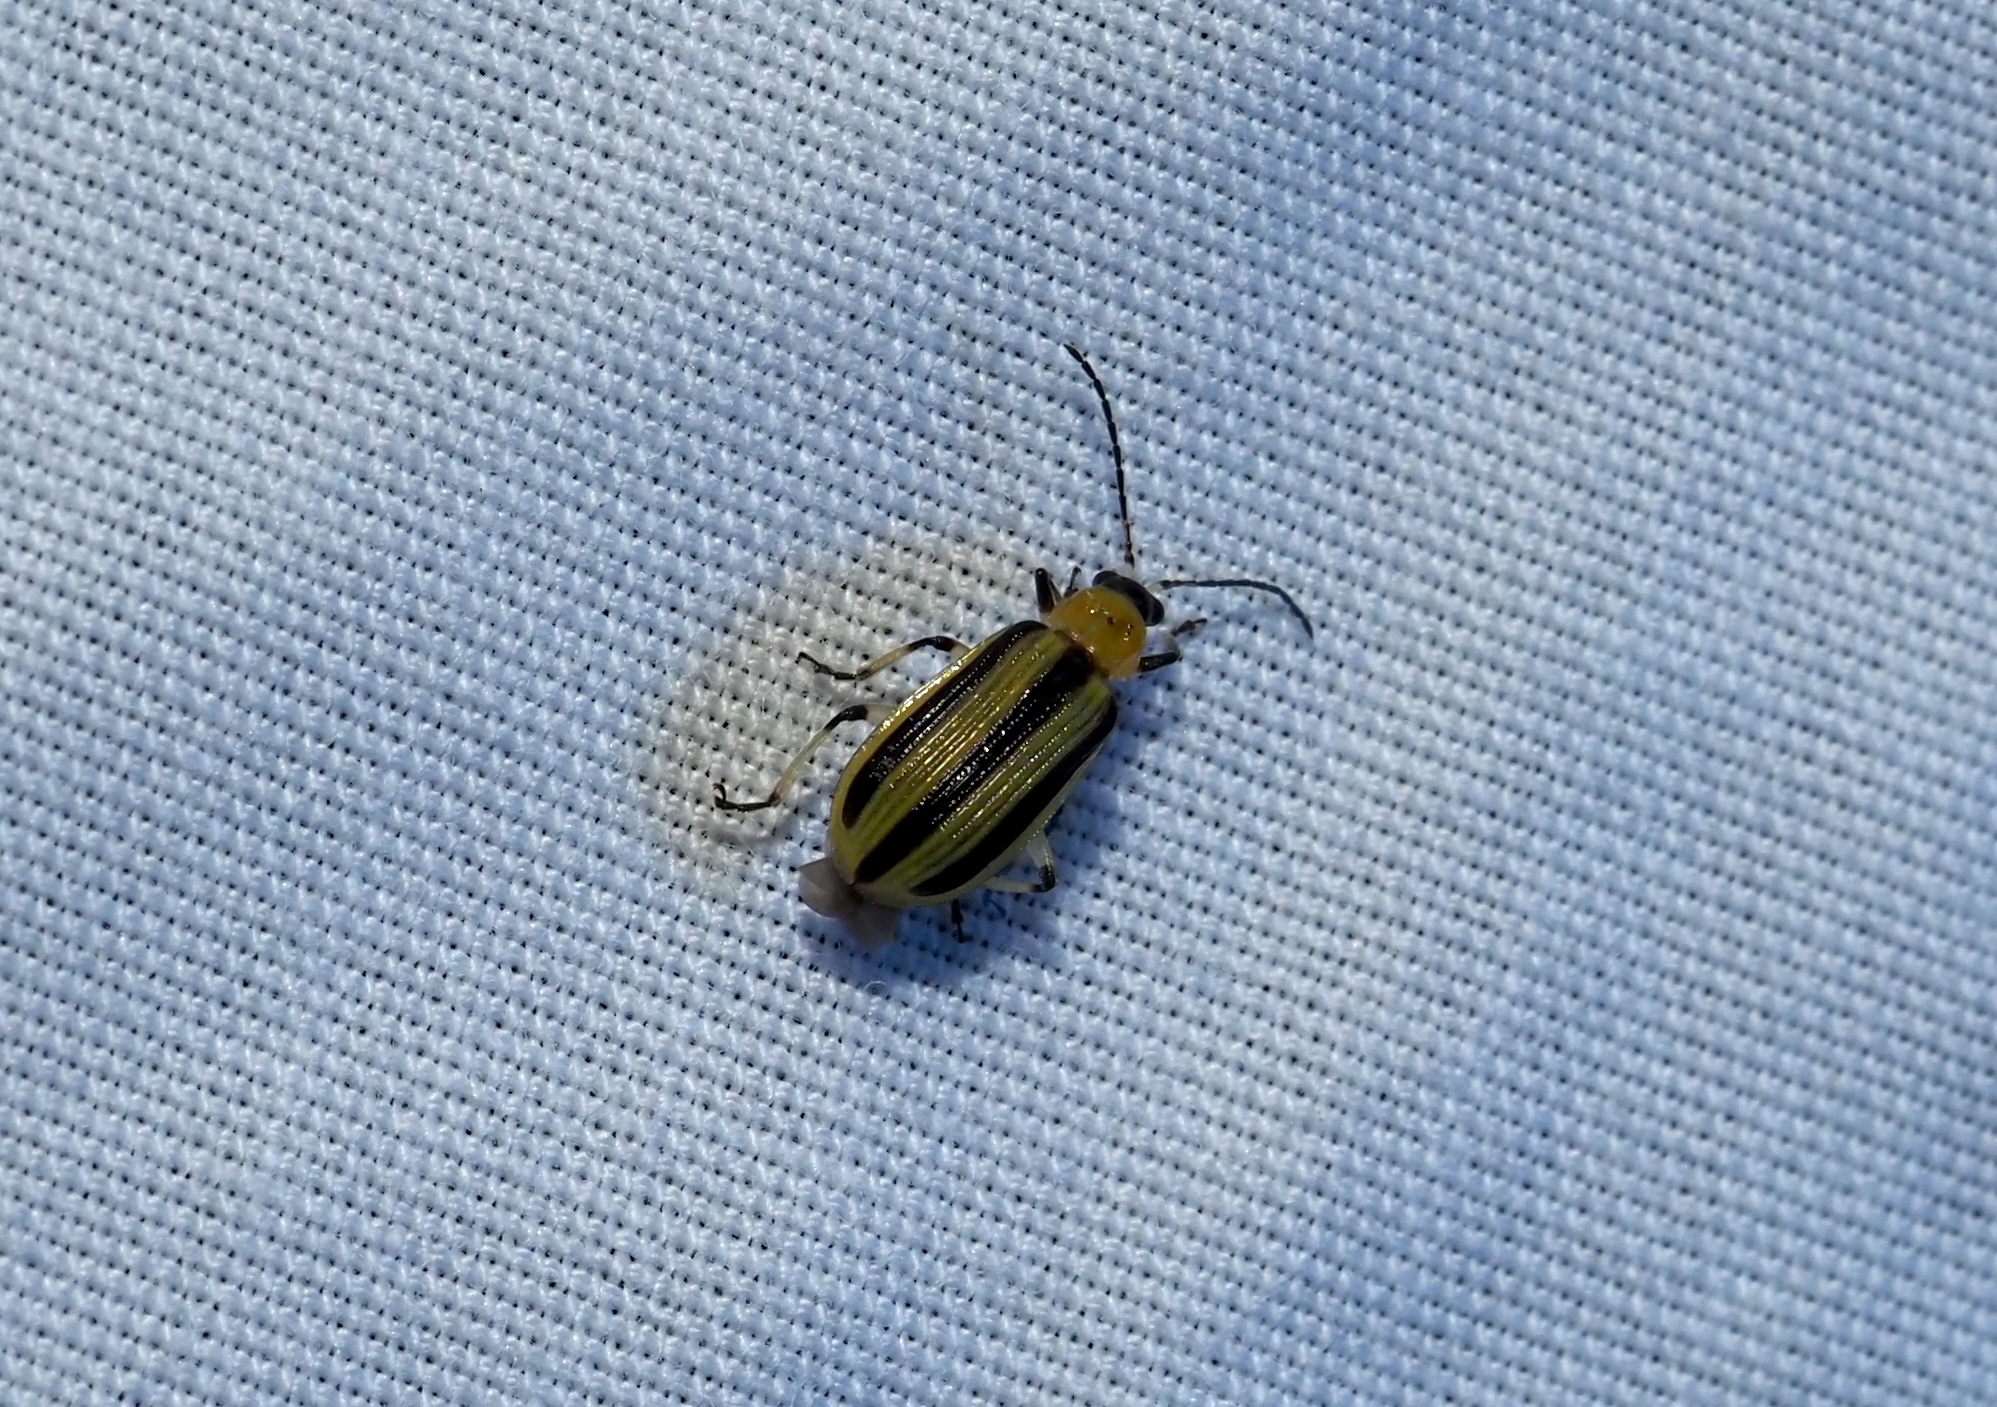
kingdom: Animalia
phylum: Arthropoda
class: Insecta
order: Coleoptera
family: Chrysomelidae
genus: Acalymma
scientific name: Acalymma vittatum
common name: Striped cucumber beetle
